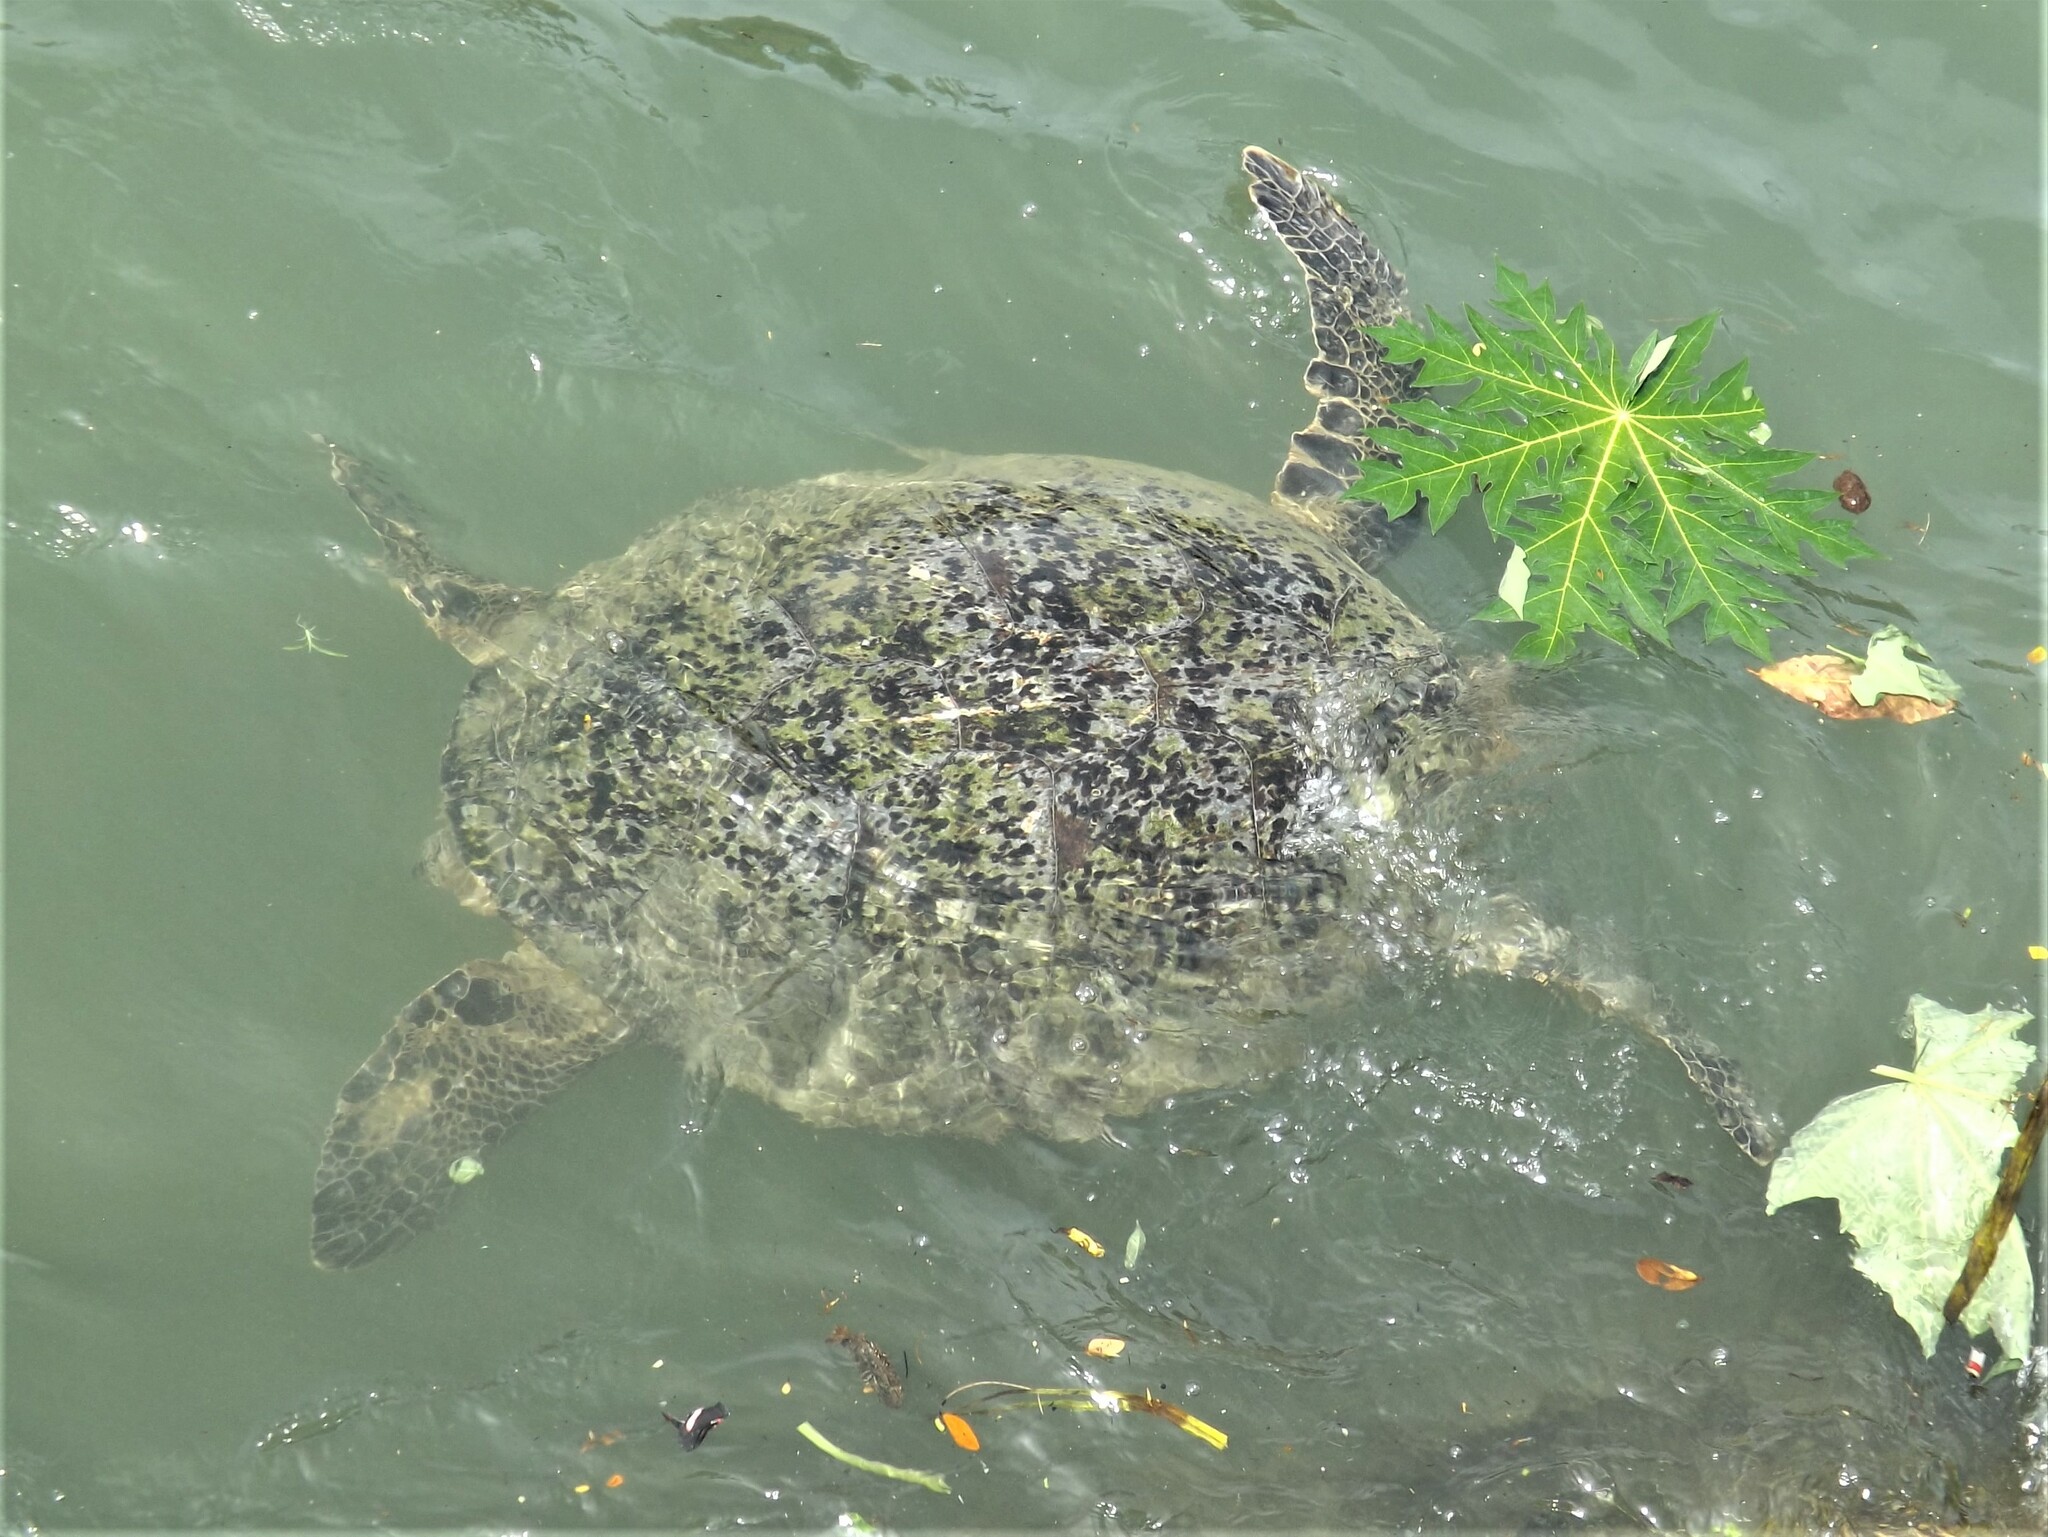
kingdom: Animalia
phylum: Chordata
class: Testudines
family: Cheloniidae
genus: Chelonia
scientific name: Chelonia mydas
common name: Green turtle
